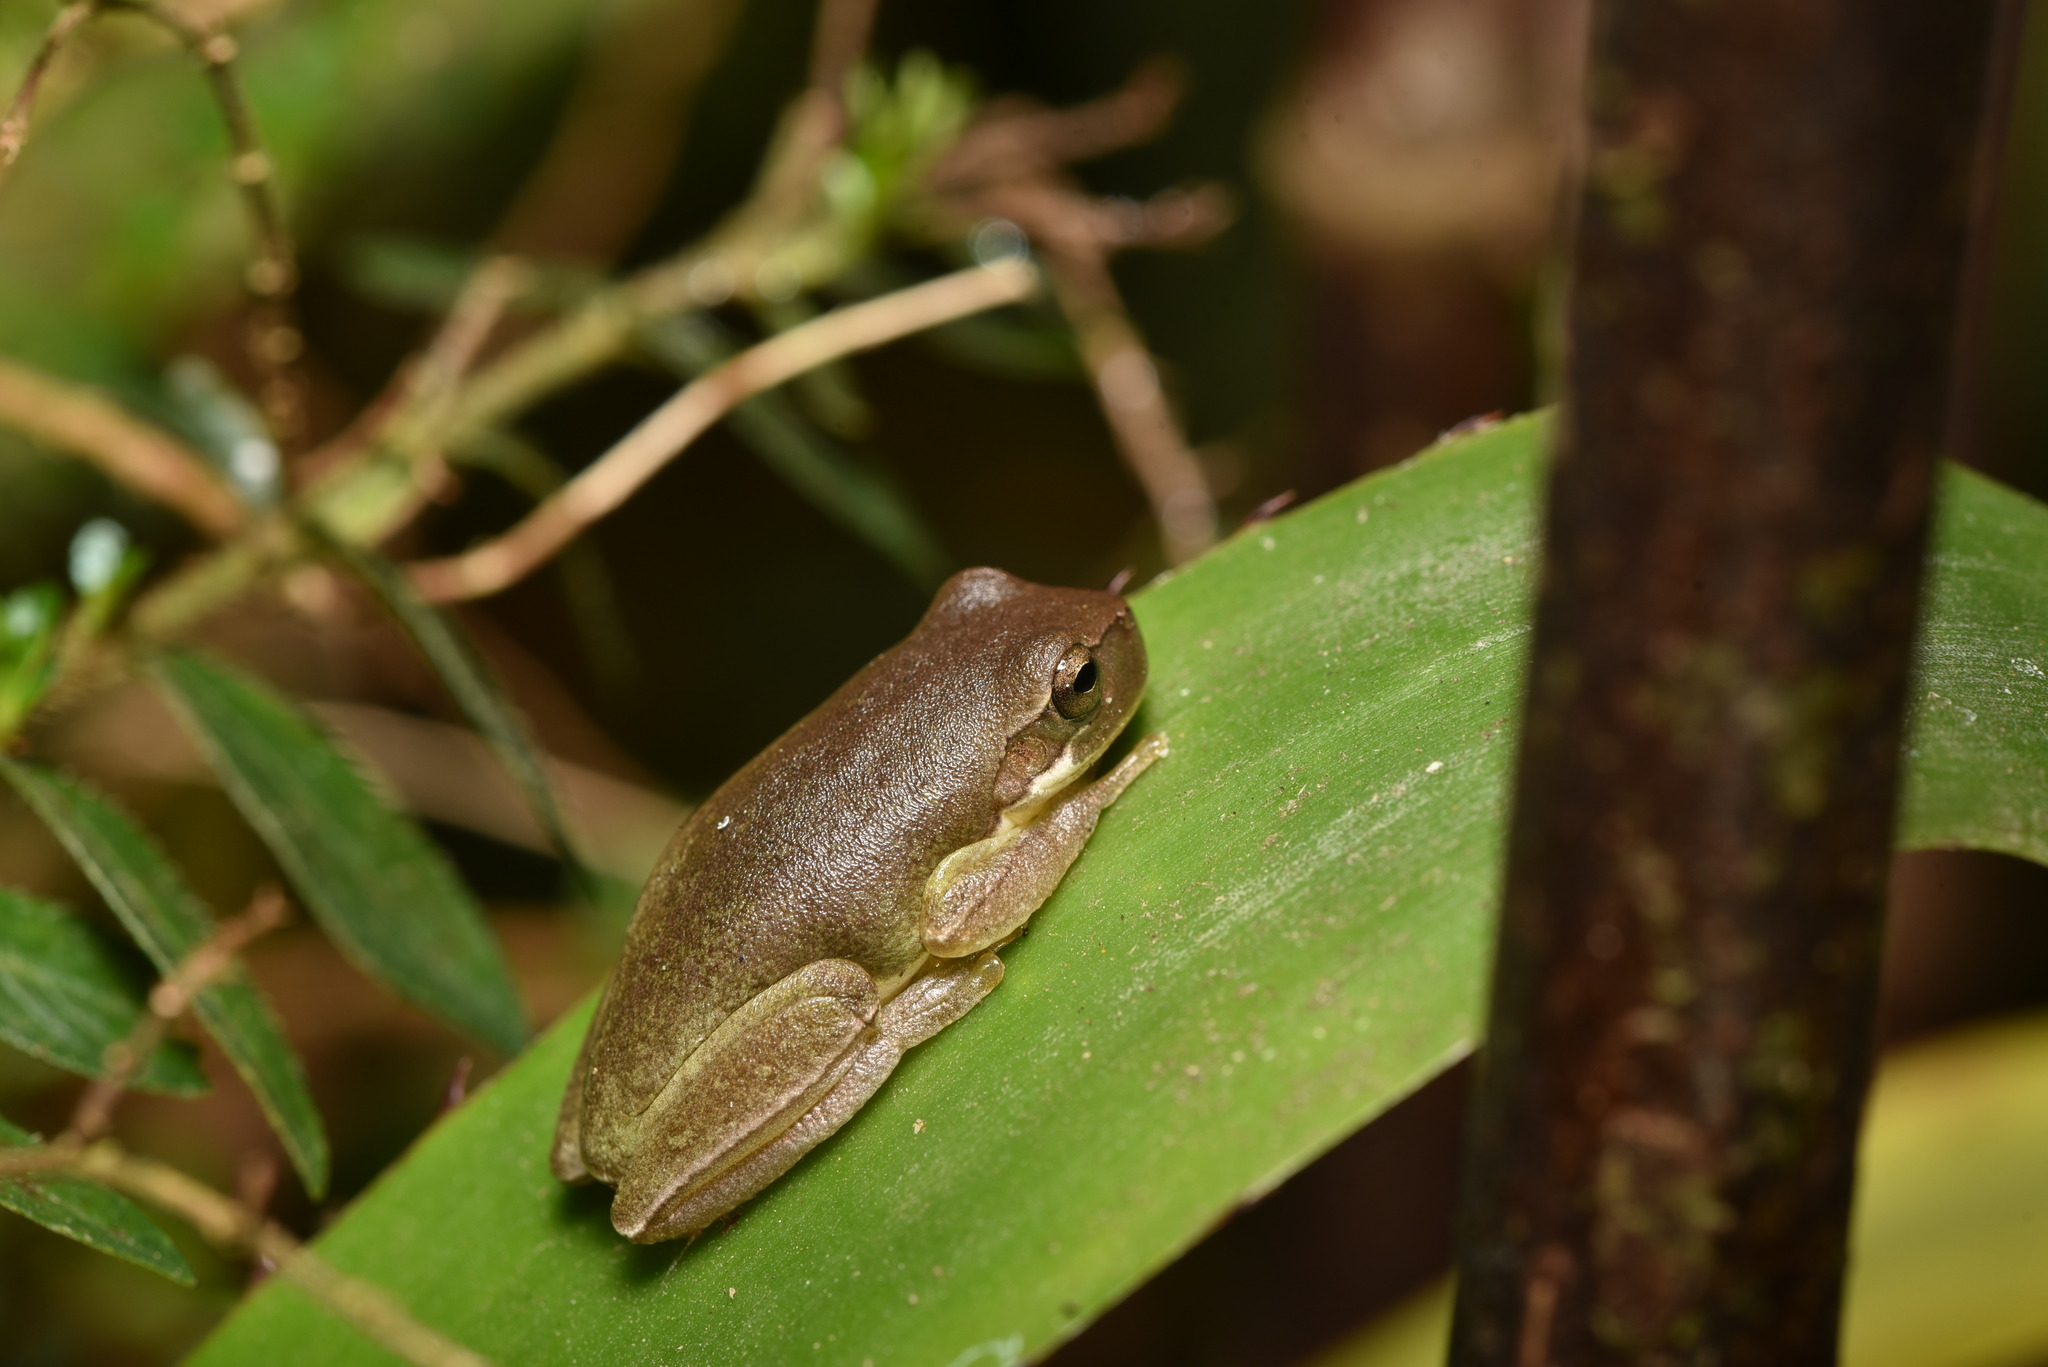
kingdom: Animalia
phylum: Chordata
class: Amphibia
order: Anura
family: Hylidae
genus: Hyla
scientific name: Hyla chinensis
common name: Common chinese treefrog
